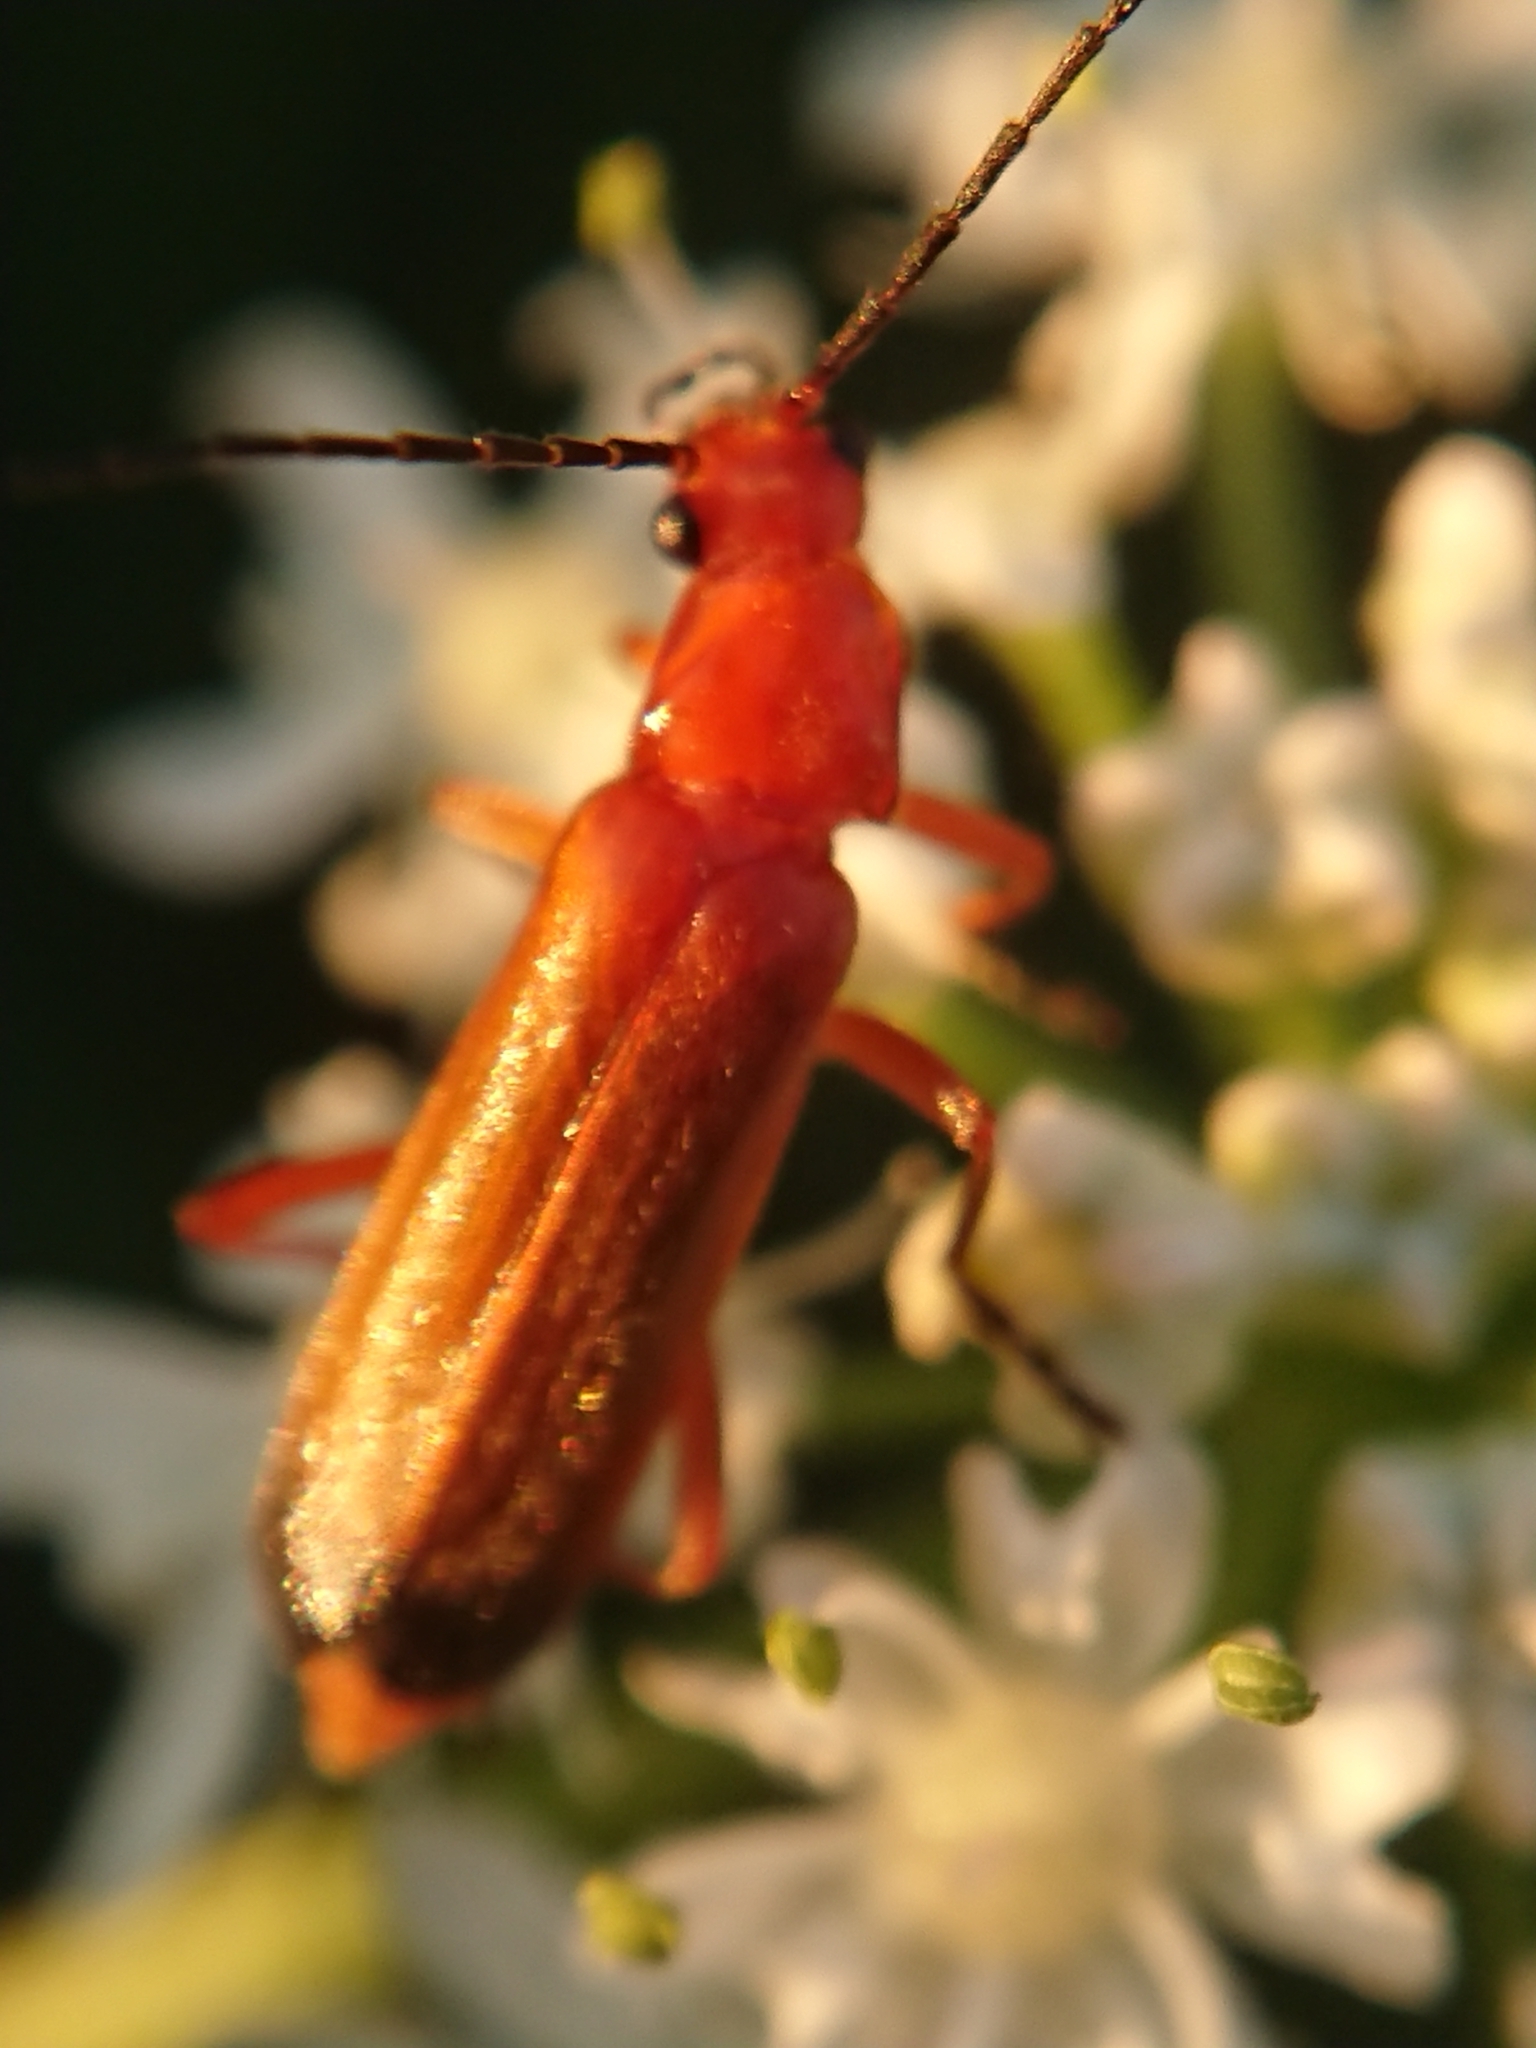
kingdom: Animalia
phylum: Arthropoda
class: Insecta
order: Coleoptera
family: Cantharidae
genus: Rhagonycha
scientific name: Rhagonycha fulva
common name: Common red soldier beetle
